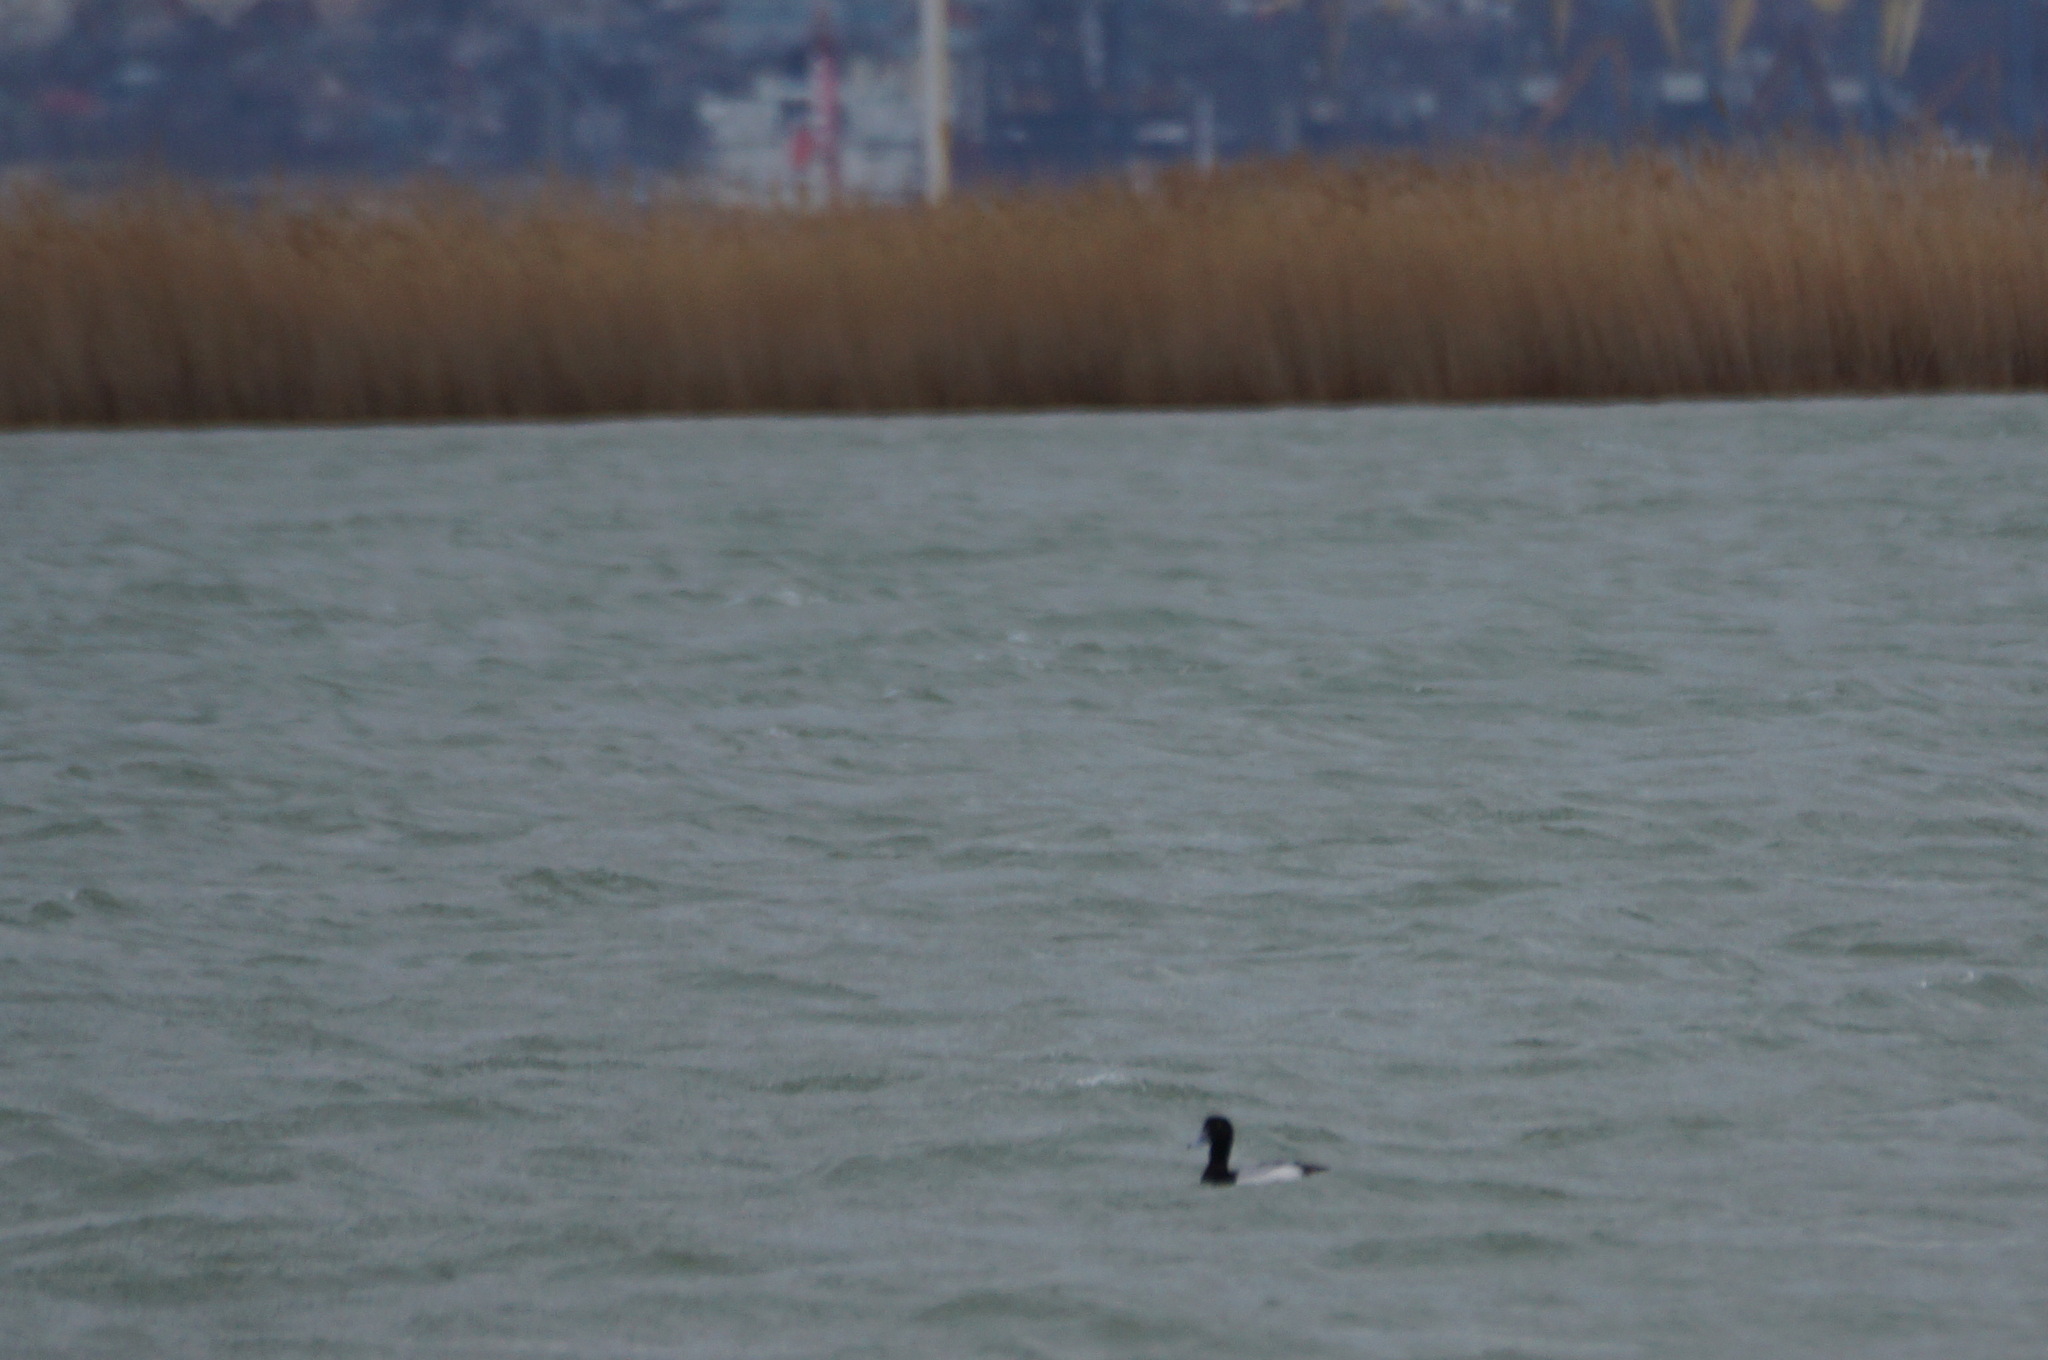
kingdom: Animalia
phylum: Chordata
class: Aves
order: Anseriformes
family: Anatidae
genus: Aythya
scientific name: Aythya marila
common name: Greater scaup
